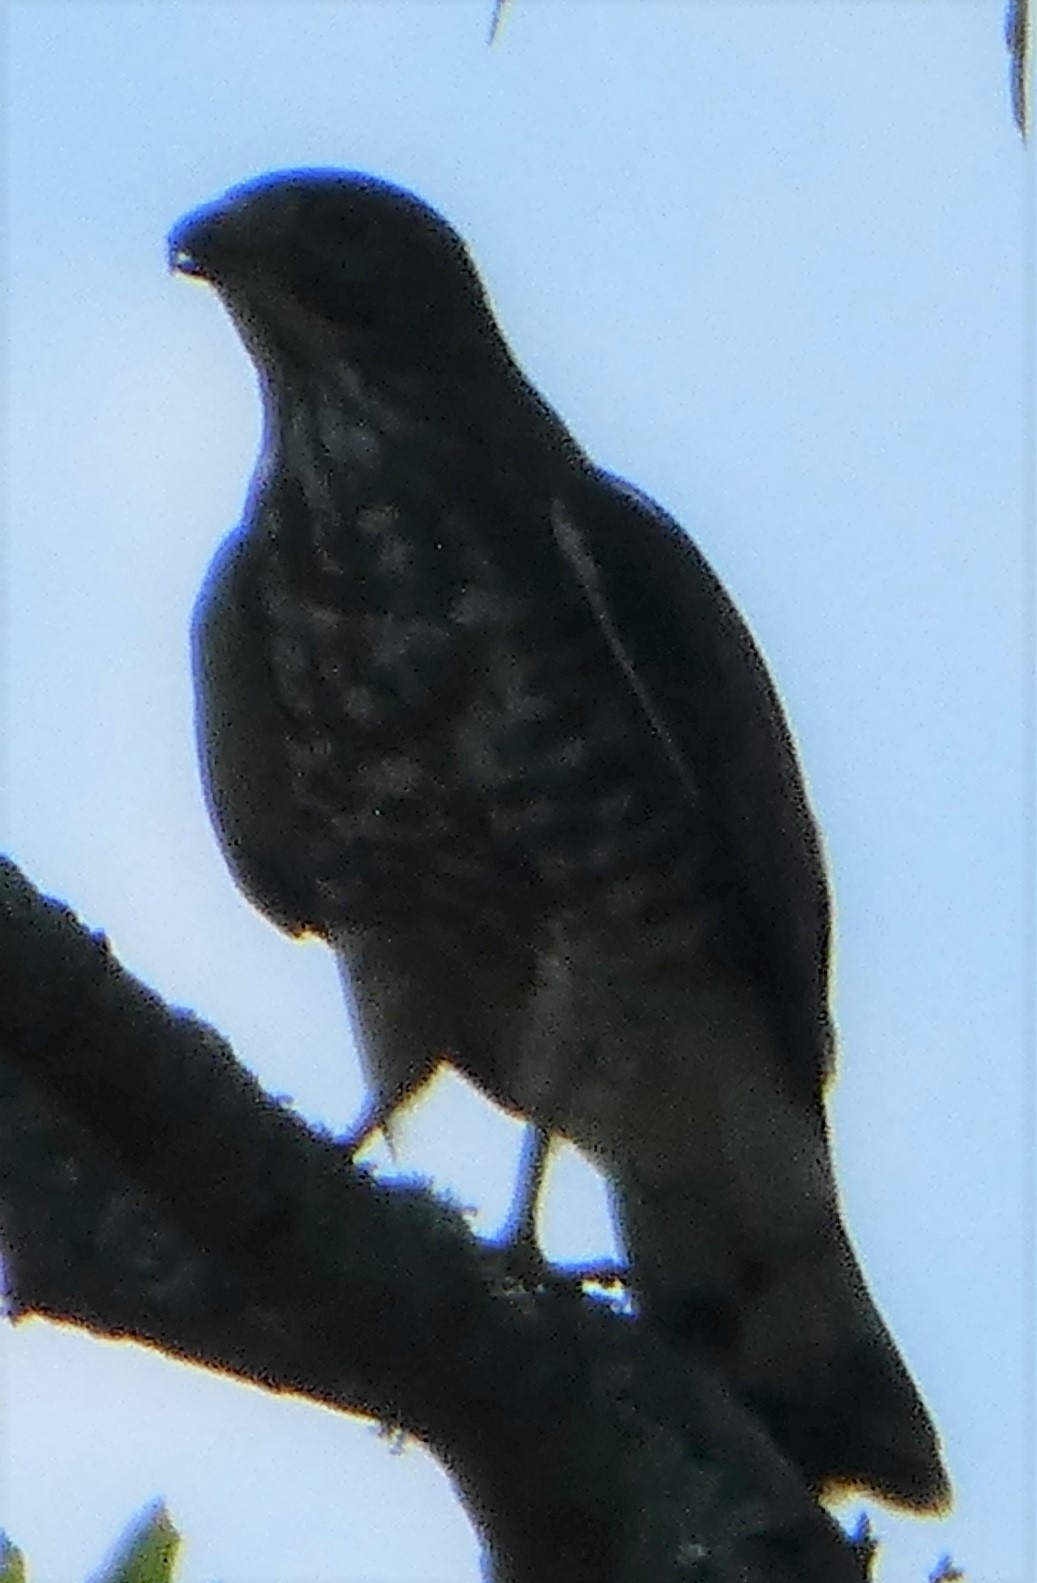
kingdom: Animalia
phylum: Chordata
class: Aves
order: Accipitriformes
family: Accipitridae
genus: Buteo
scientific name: Buteo platypterus
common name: Broad-winged hawk
